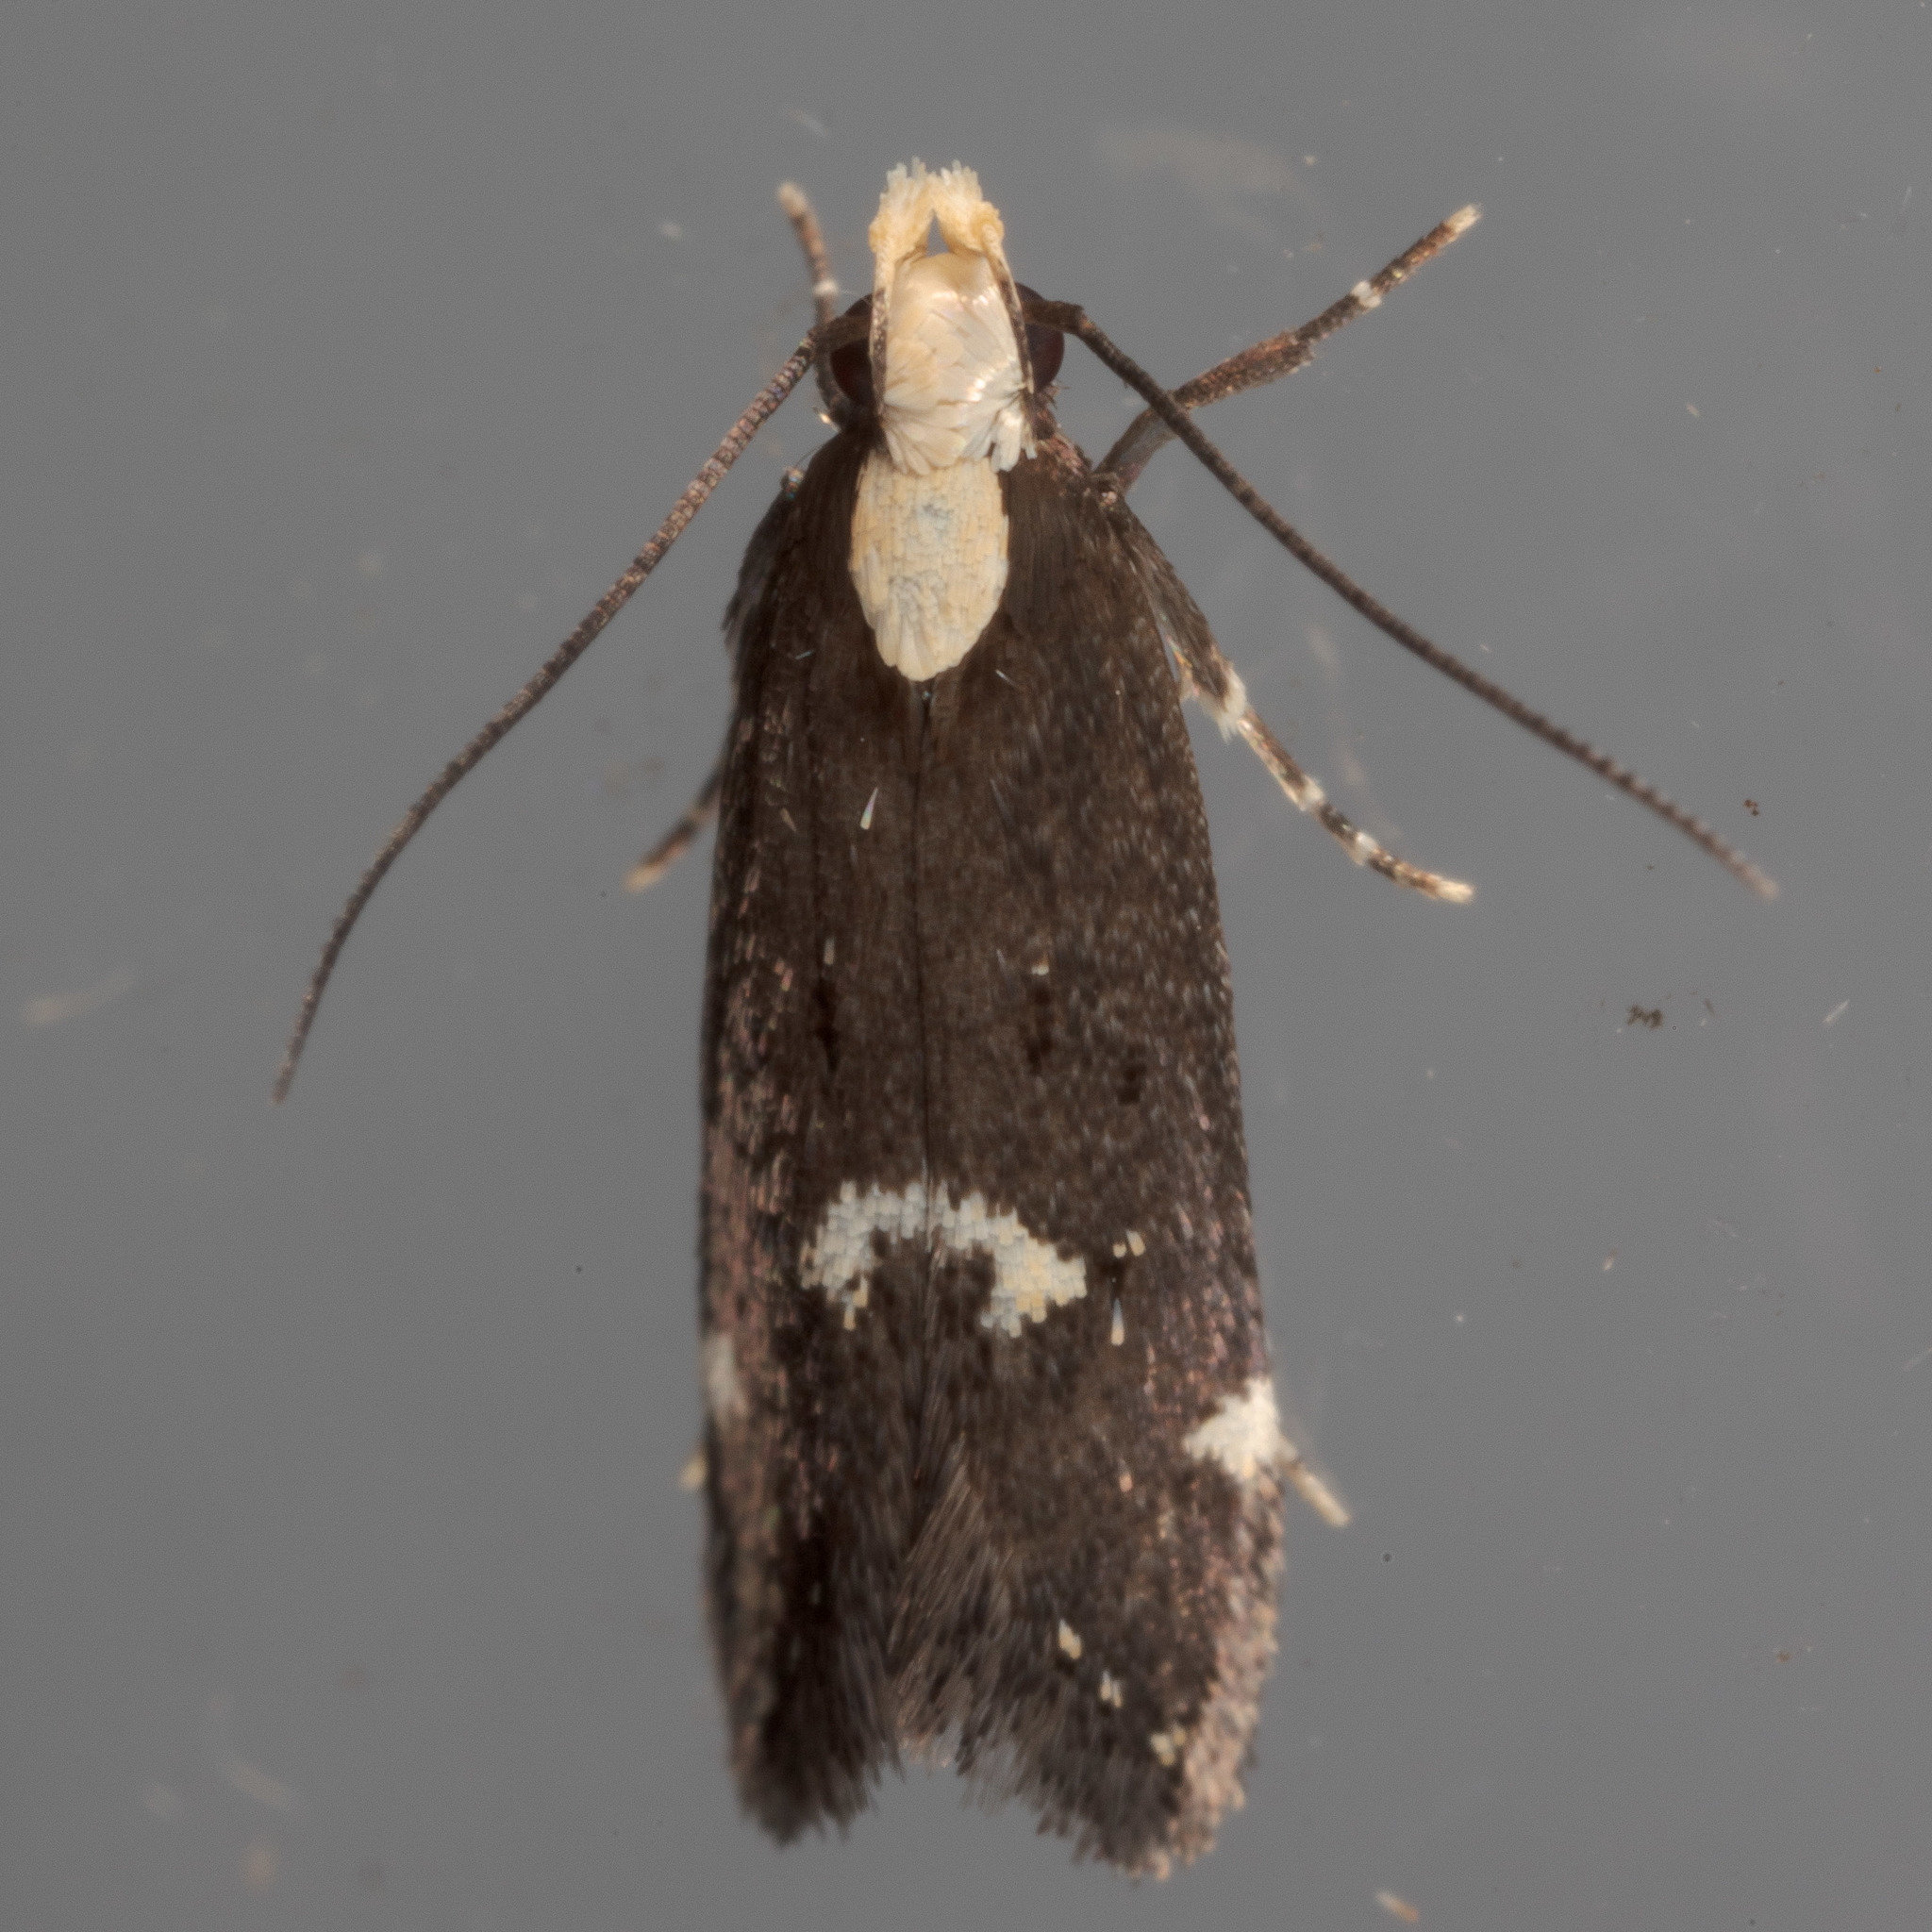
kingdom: Animalia
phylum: Arthropoda
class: Insecta
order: Lepidoptera
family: Gelechiidae
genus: Chionodes
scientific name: Chionodes mariona
